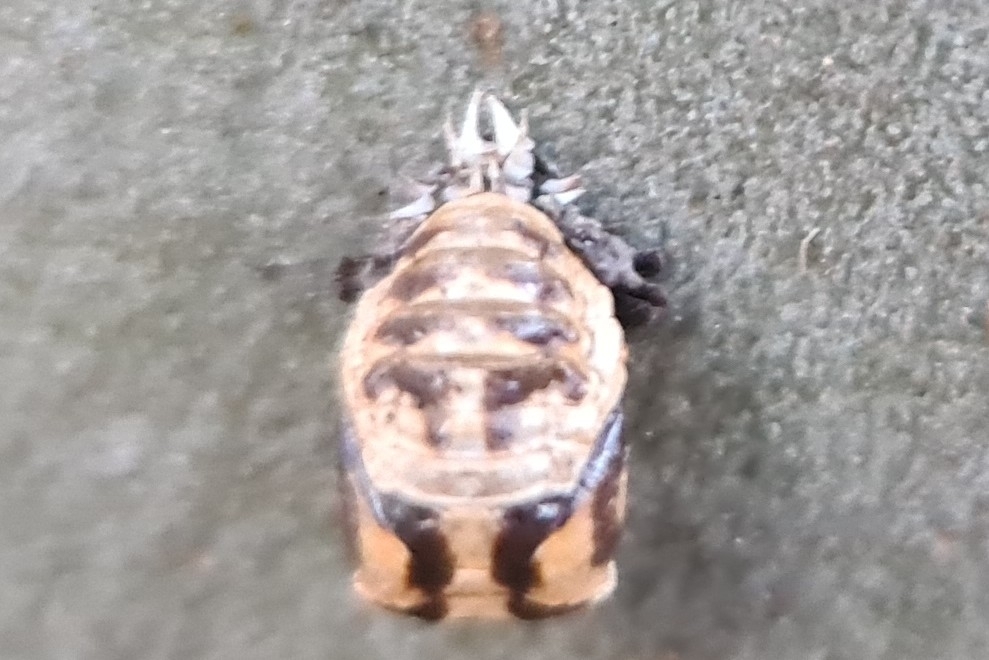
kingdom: Animalia
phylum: Arthropoda
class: Insecta
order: Coleoptera
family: Coccinellidae
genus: Harmonia
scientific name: Harmonia
